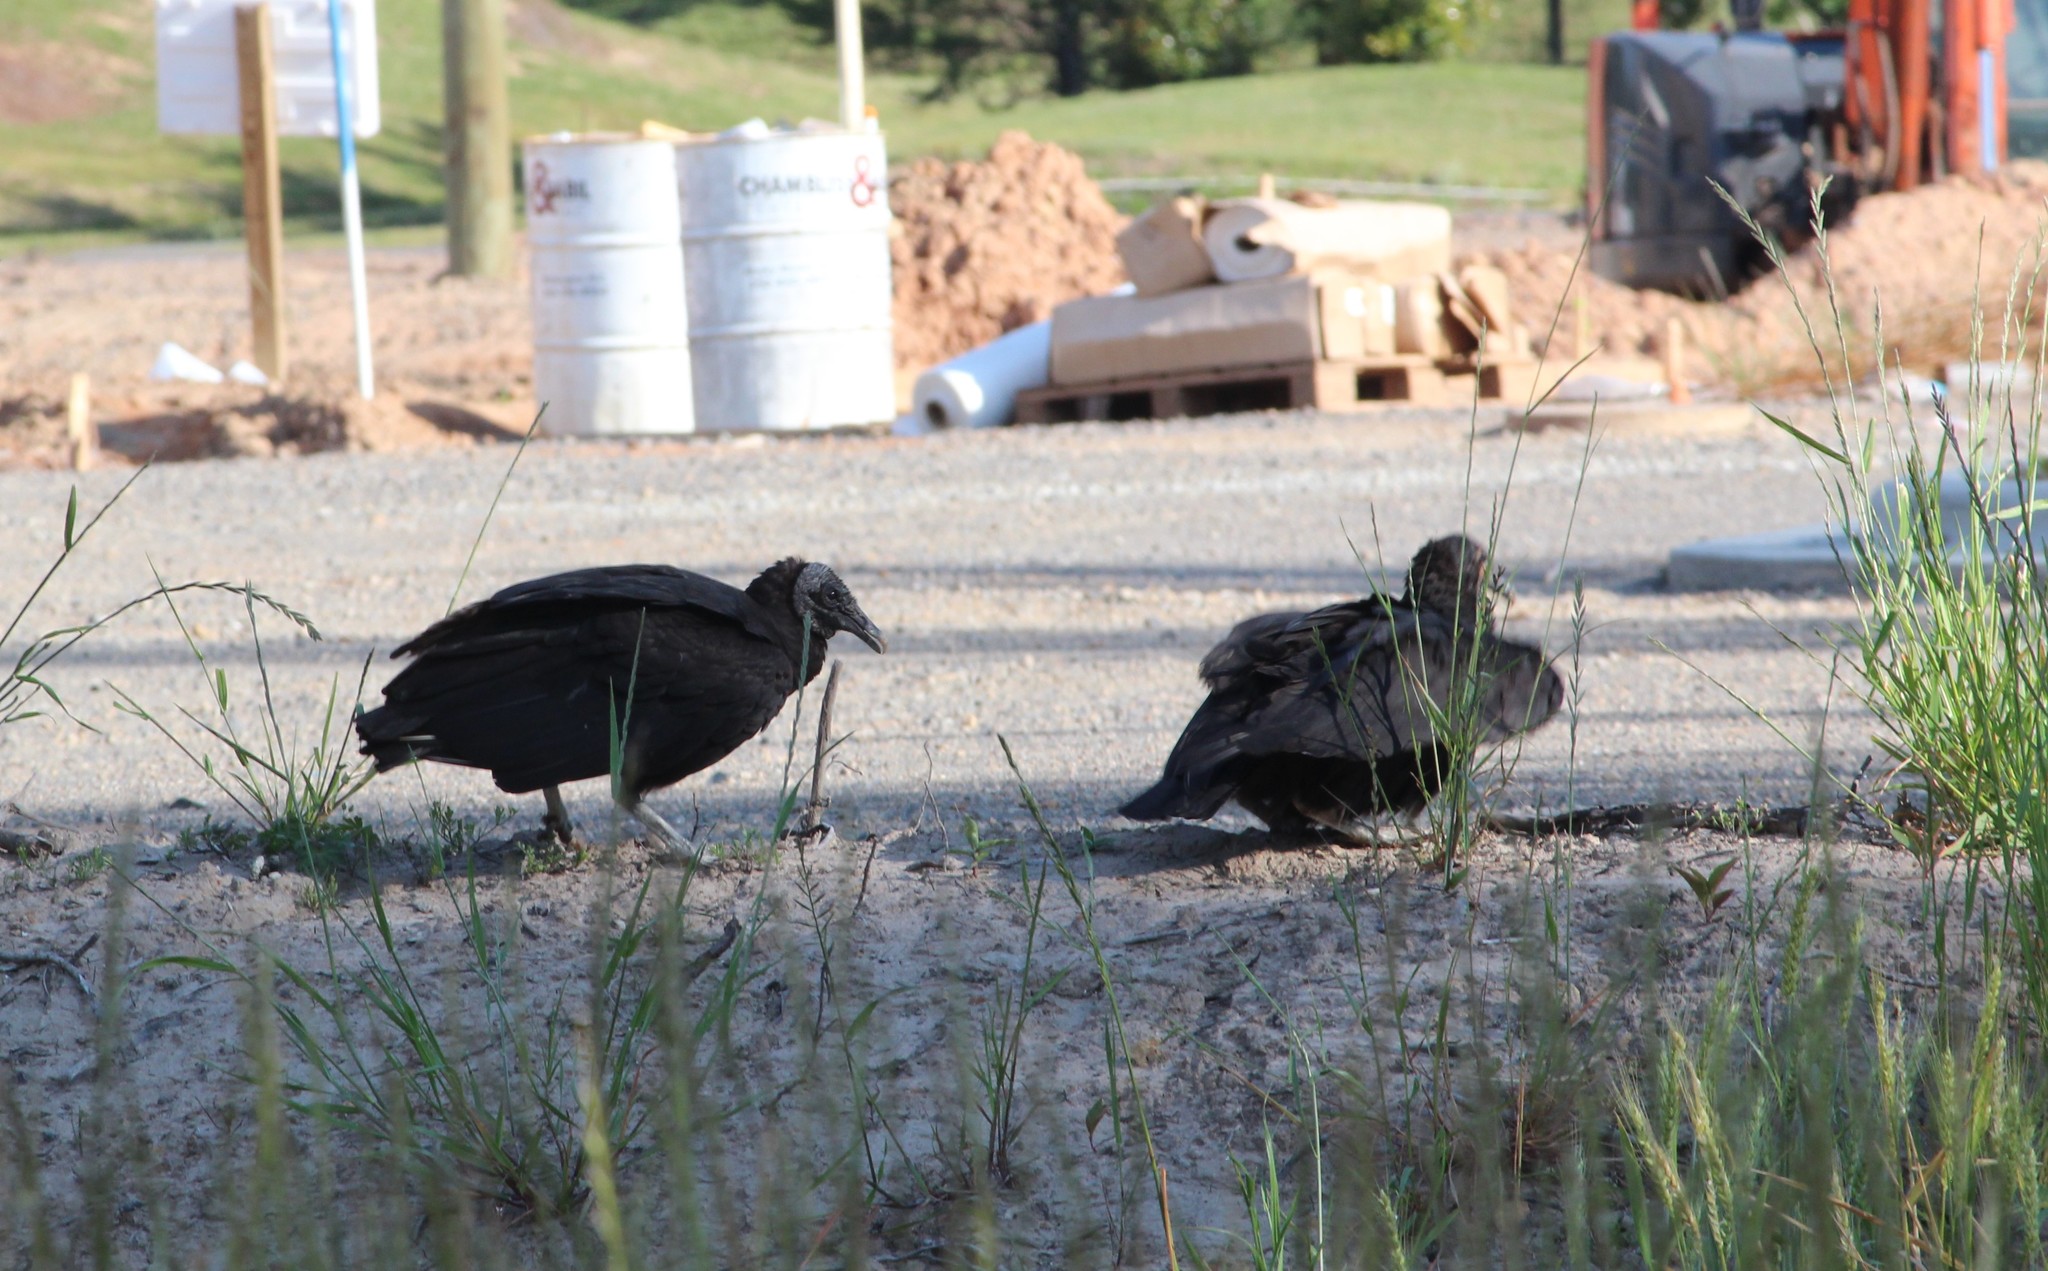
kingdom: Animalia
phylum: Chordata
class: Aves
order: Accipitriformes
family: Cathartidae
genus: Coragyps
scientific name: Coragyps atratus
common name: Black vulture
